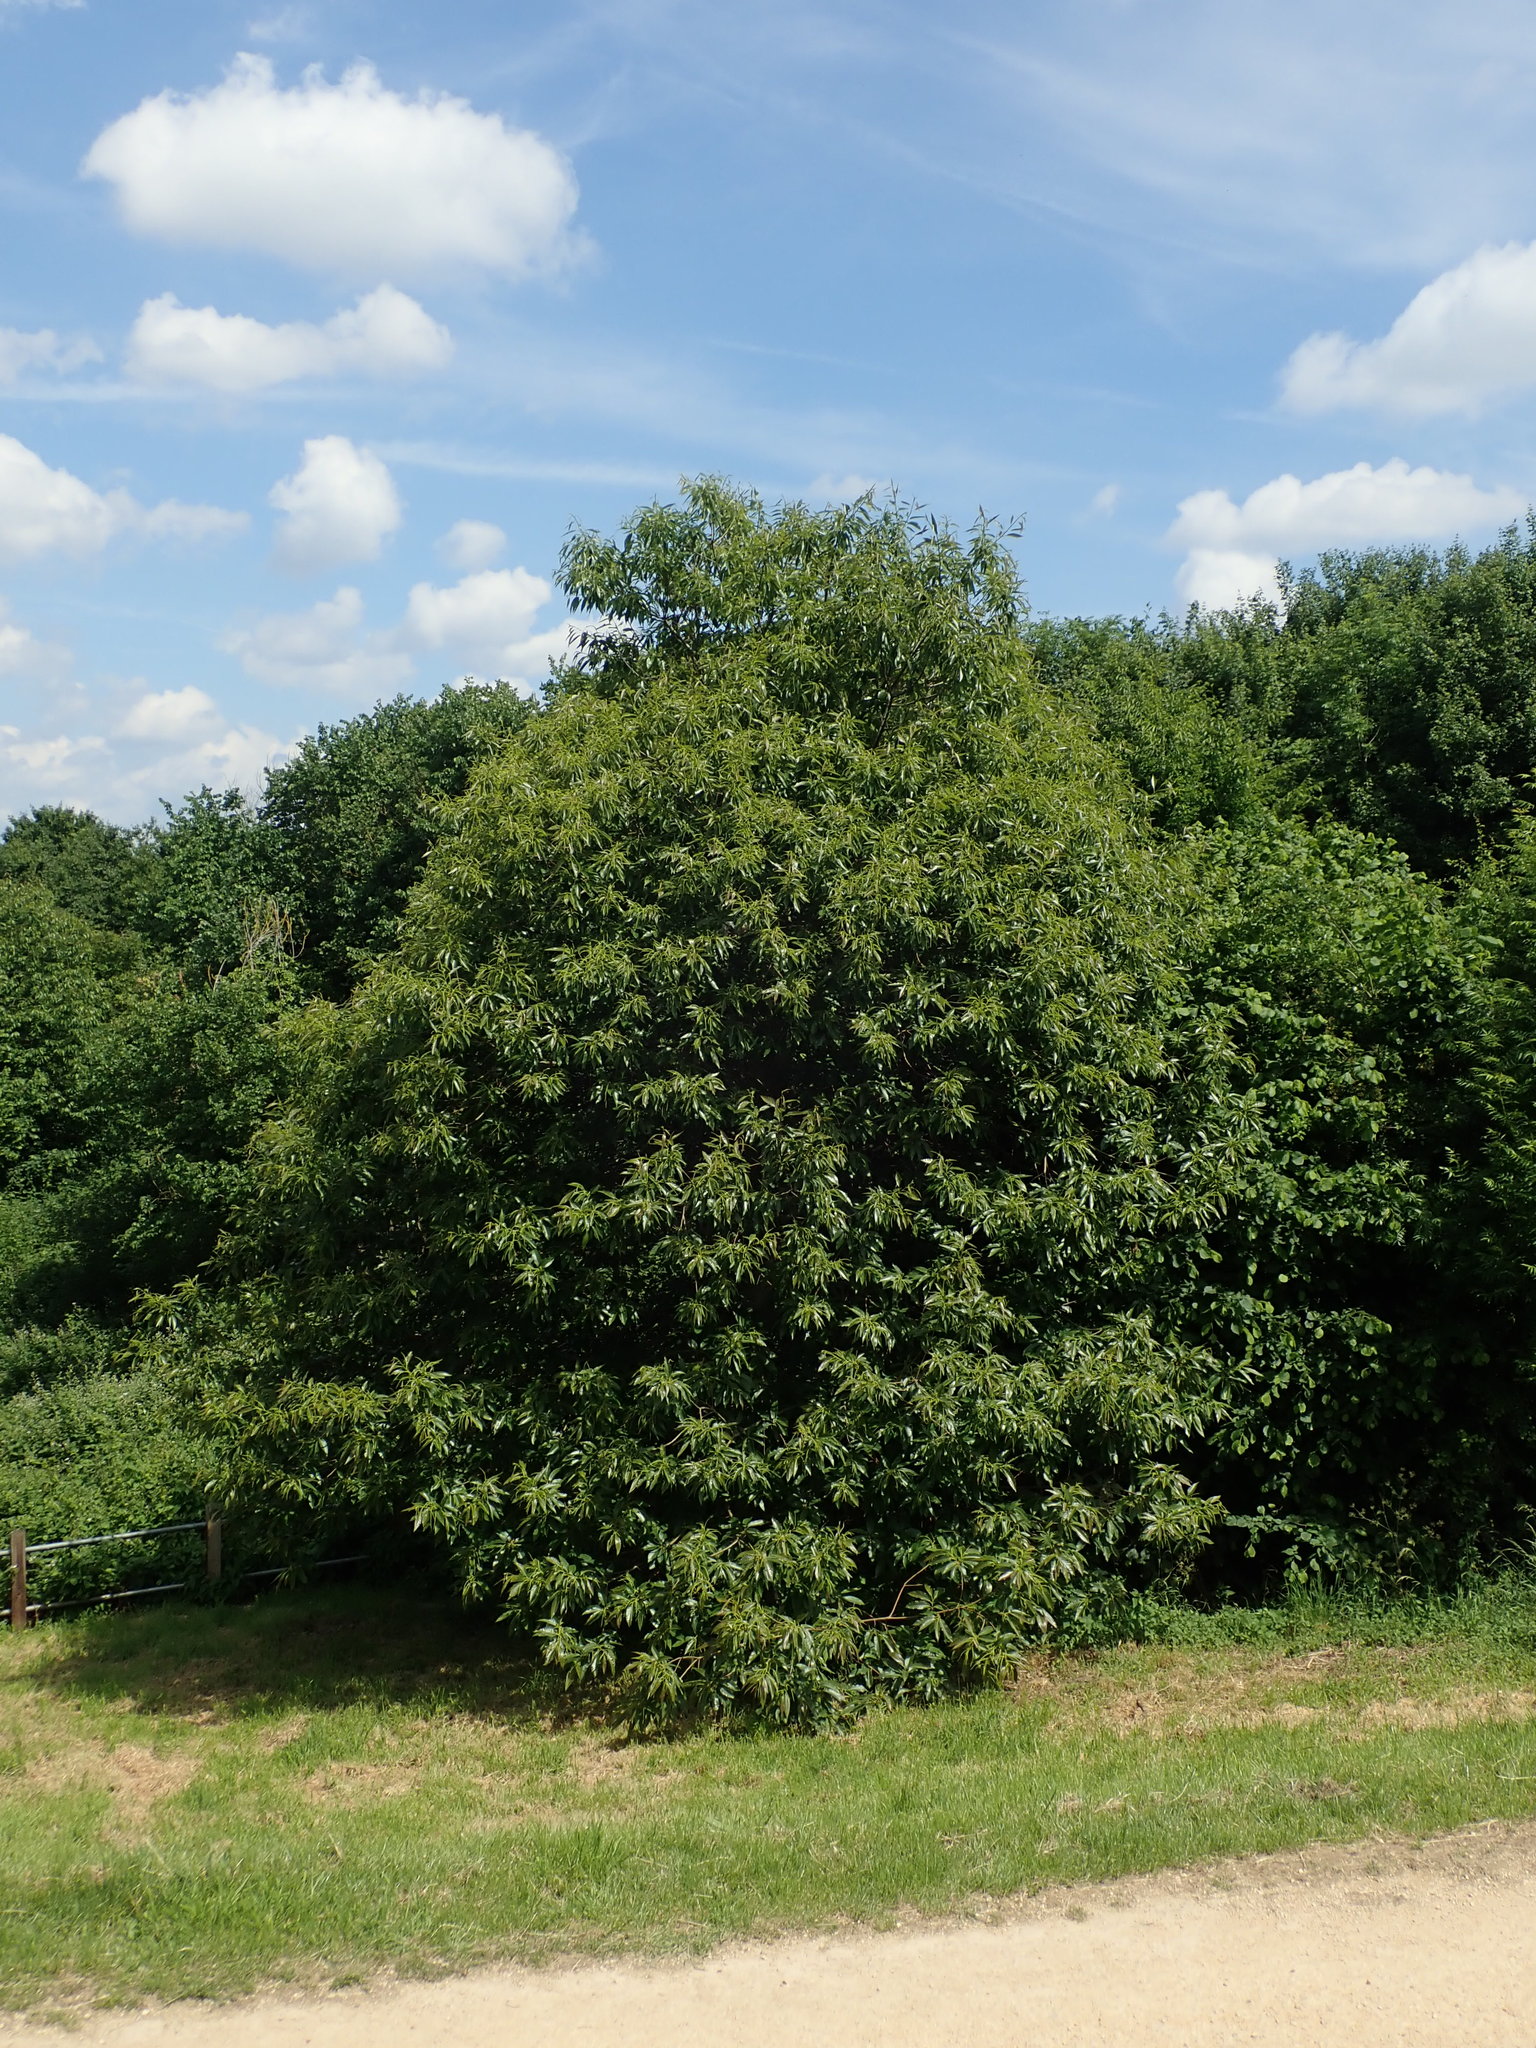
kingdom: Plantae
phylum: Tracheophyta
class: Magnoliopsida
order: Fagales
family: Fagaceae
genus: Castanea
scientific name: Castanea sativa
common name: Sweet chestnut
